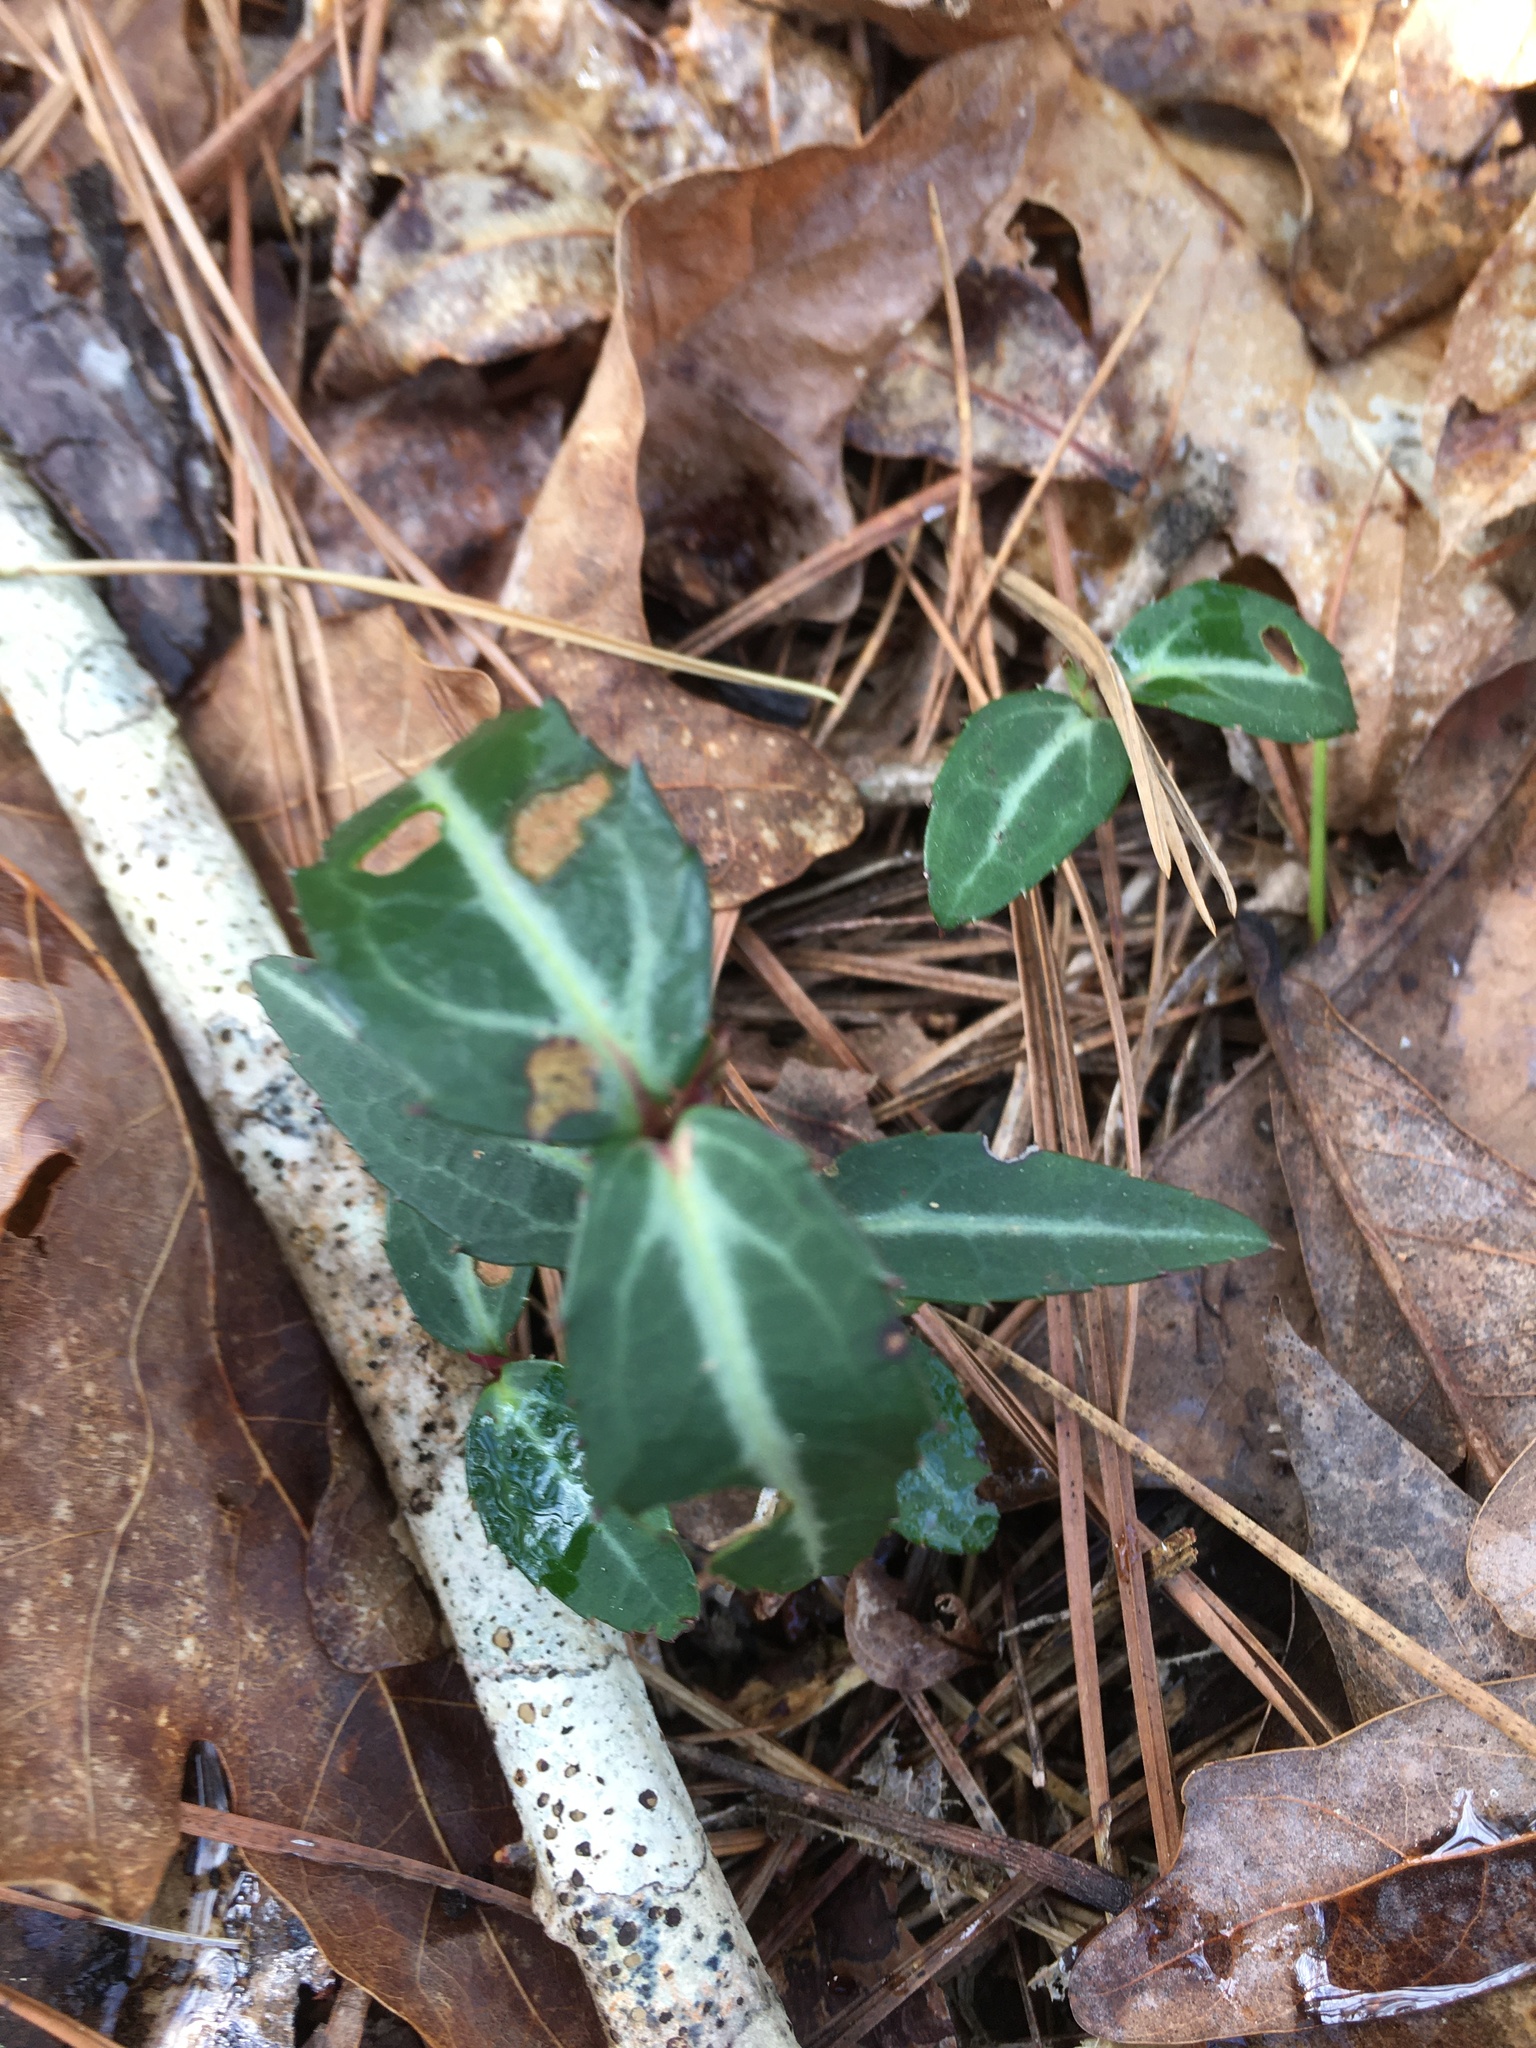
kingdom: Plantae
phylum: Tracheophyta
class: Magnoliopsida
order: Ericales
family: Ericaceae
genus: Chimaphila
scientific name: Chimaphila maculata
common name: Spotted pipsissewa
